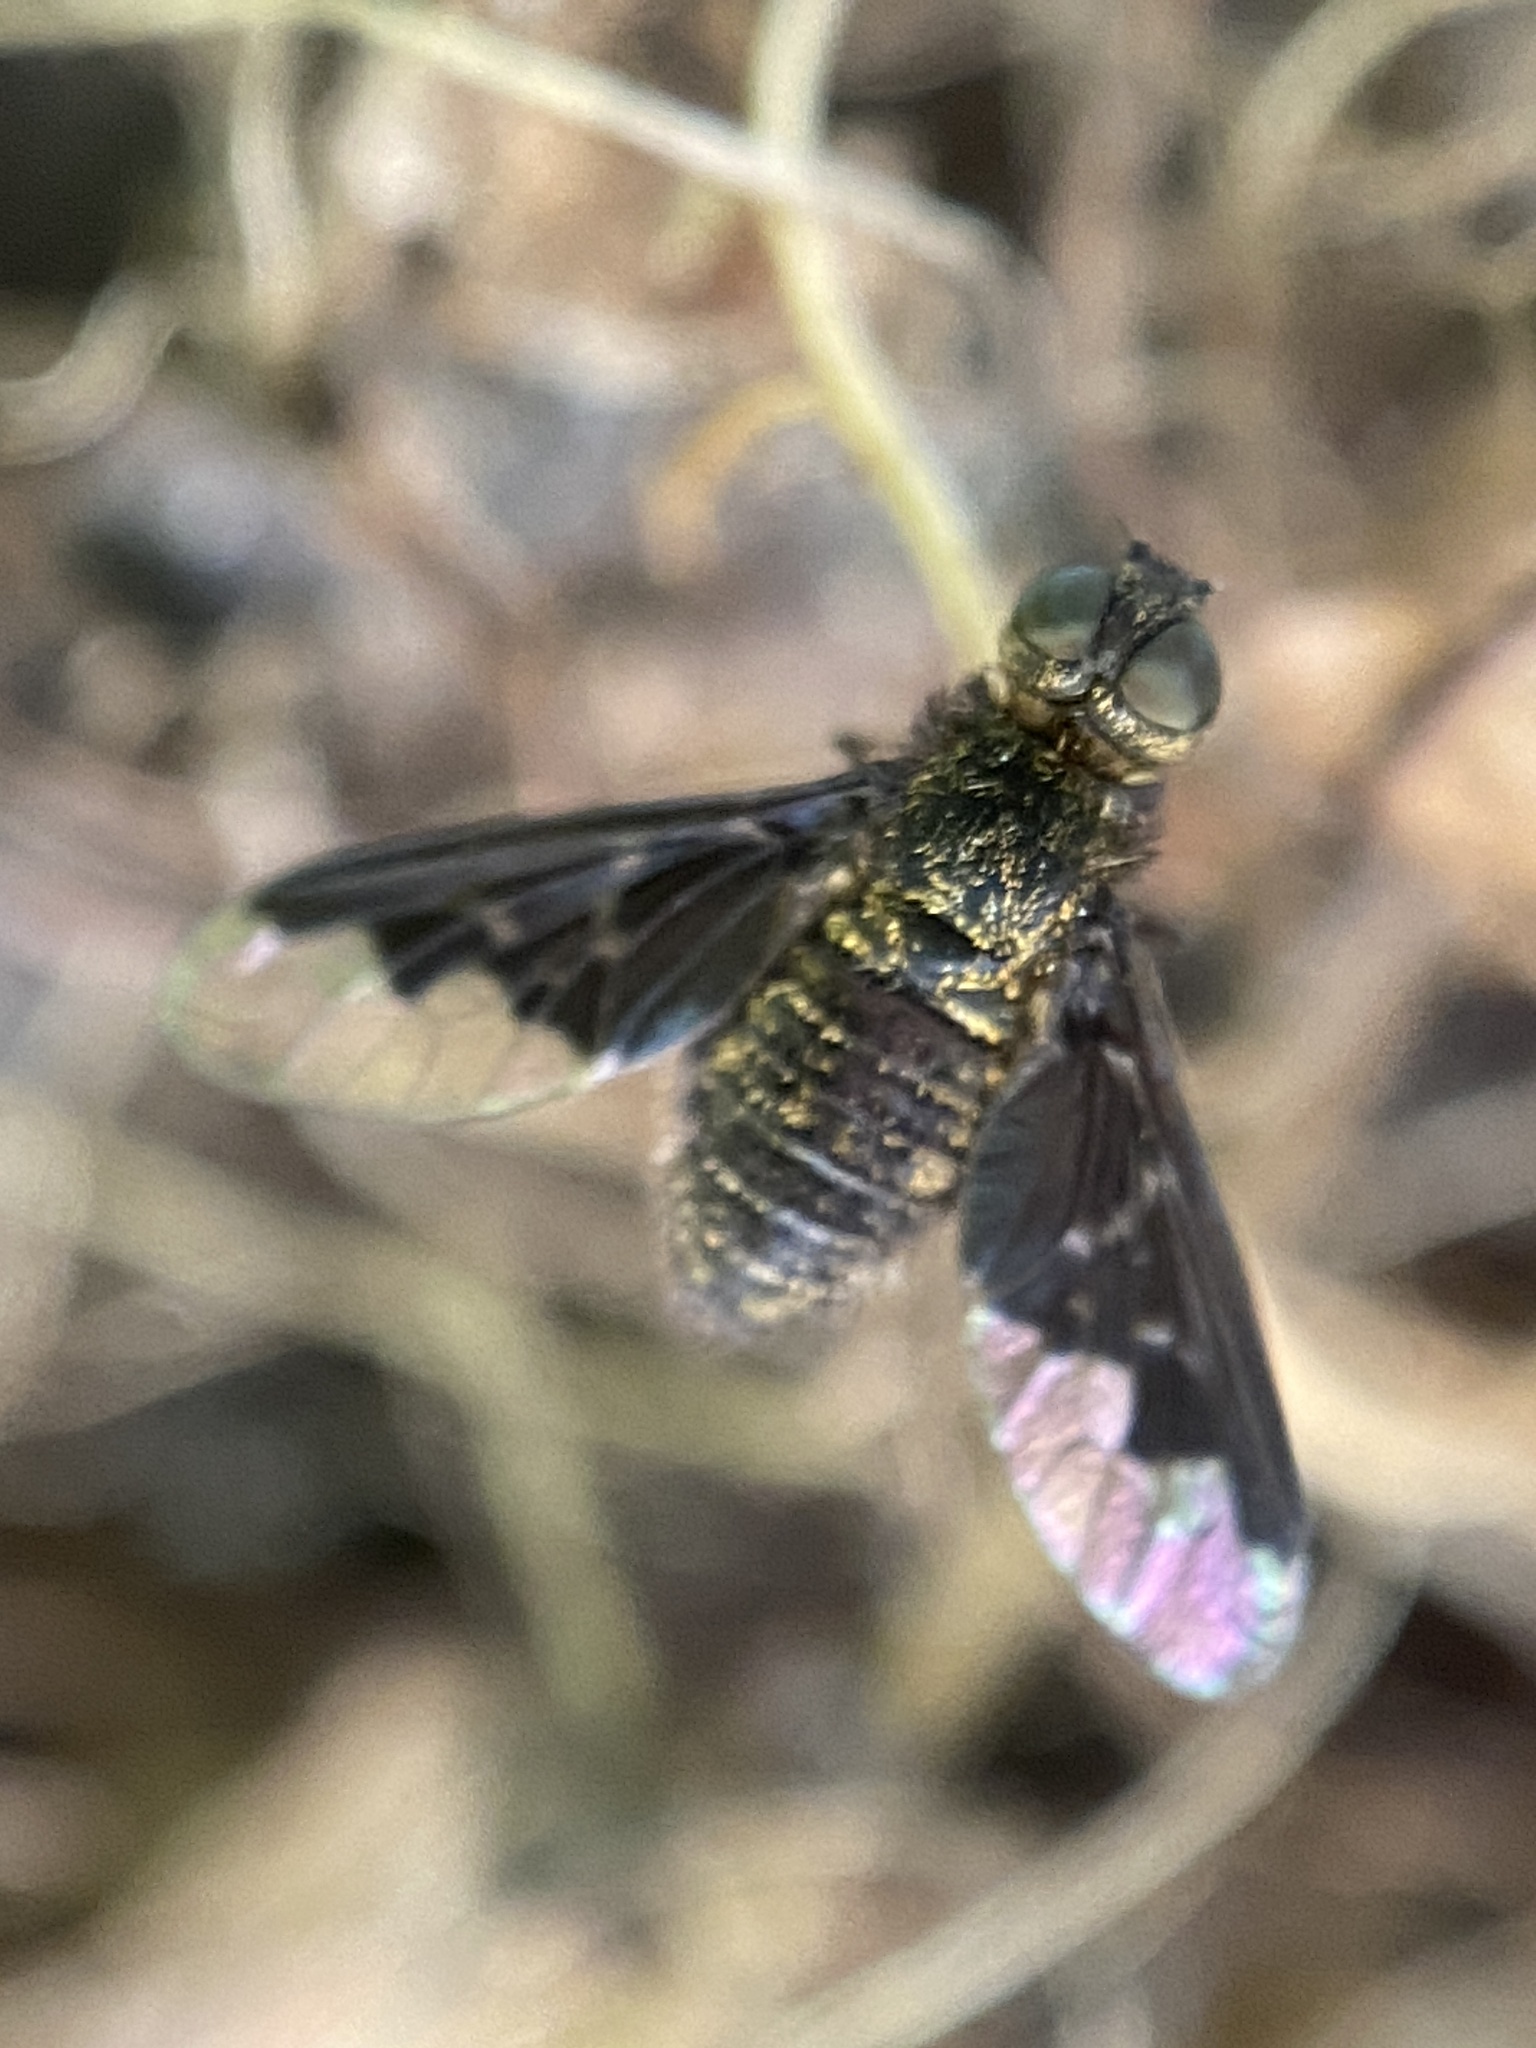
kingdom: Animalia
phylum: Arthropoda
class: Insecta
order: Diptera
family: Bombyliidae
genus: Hemipenthes
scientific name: Hemipenthes webberi
